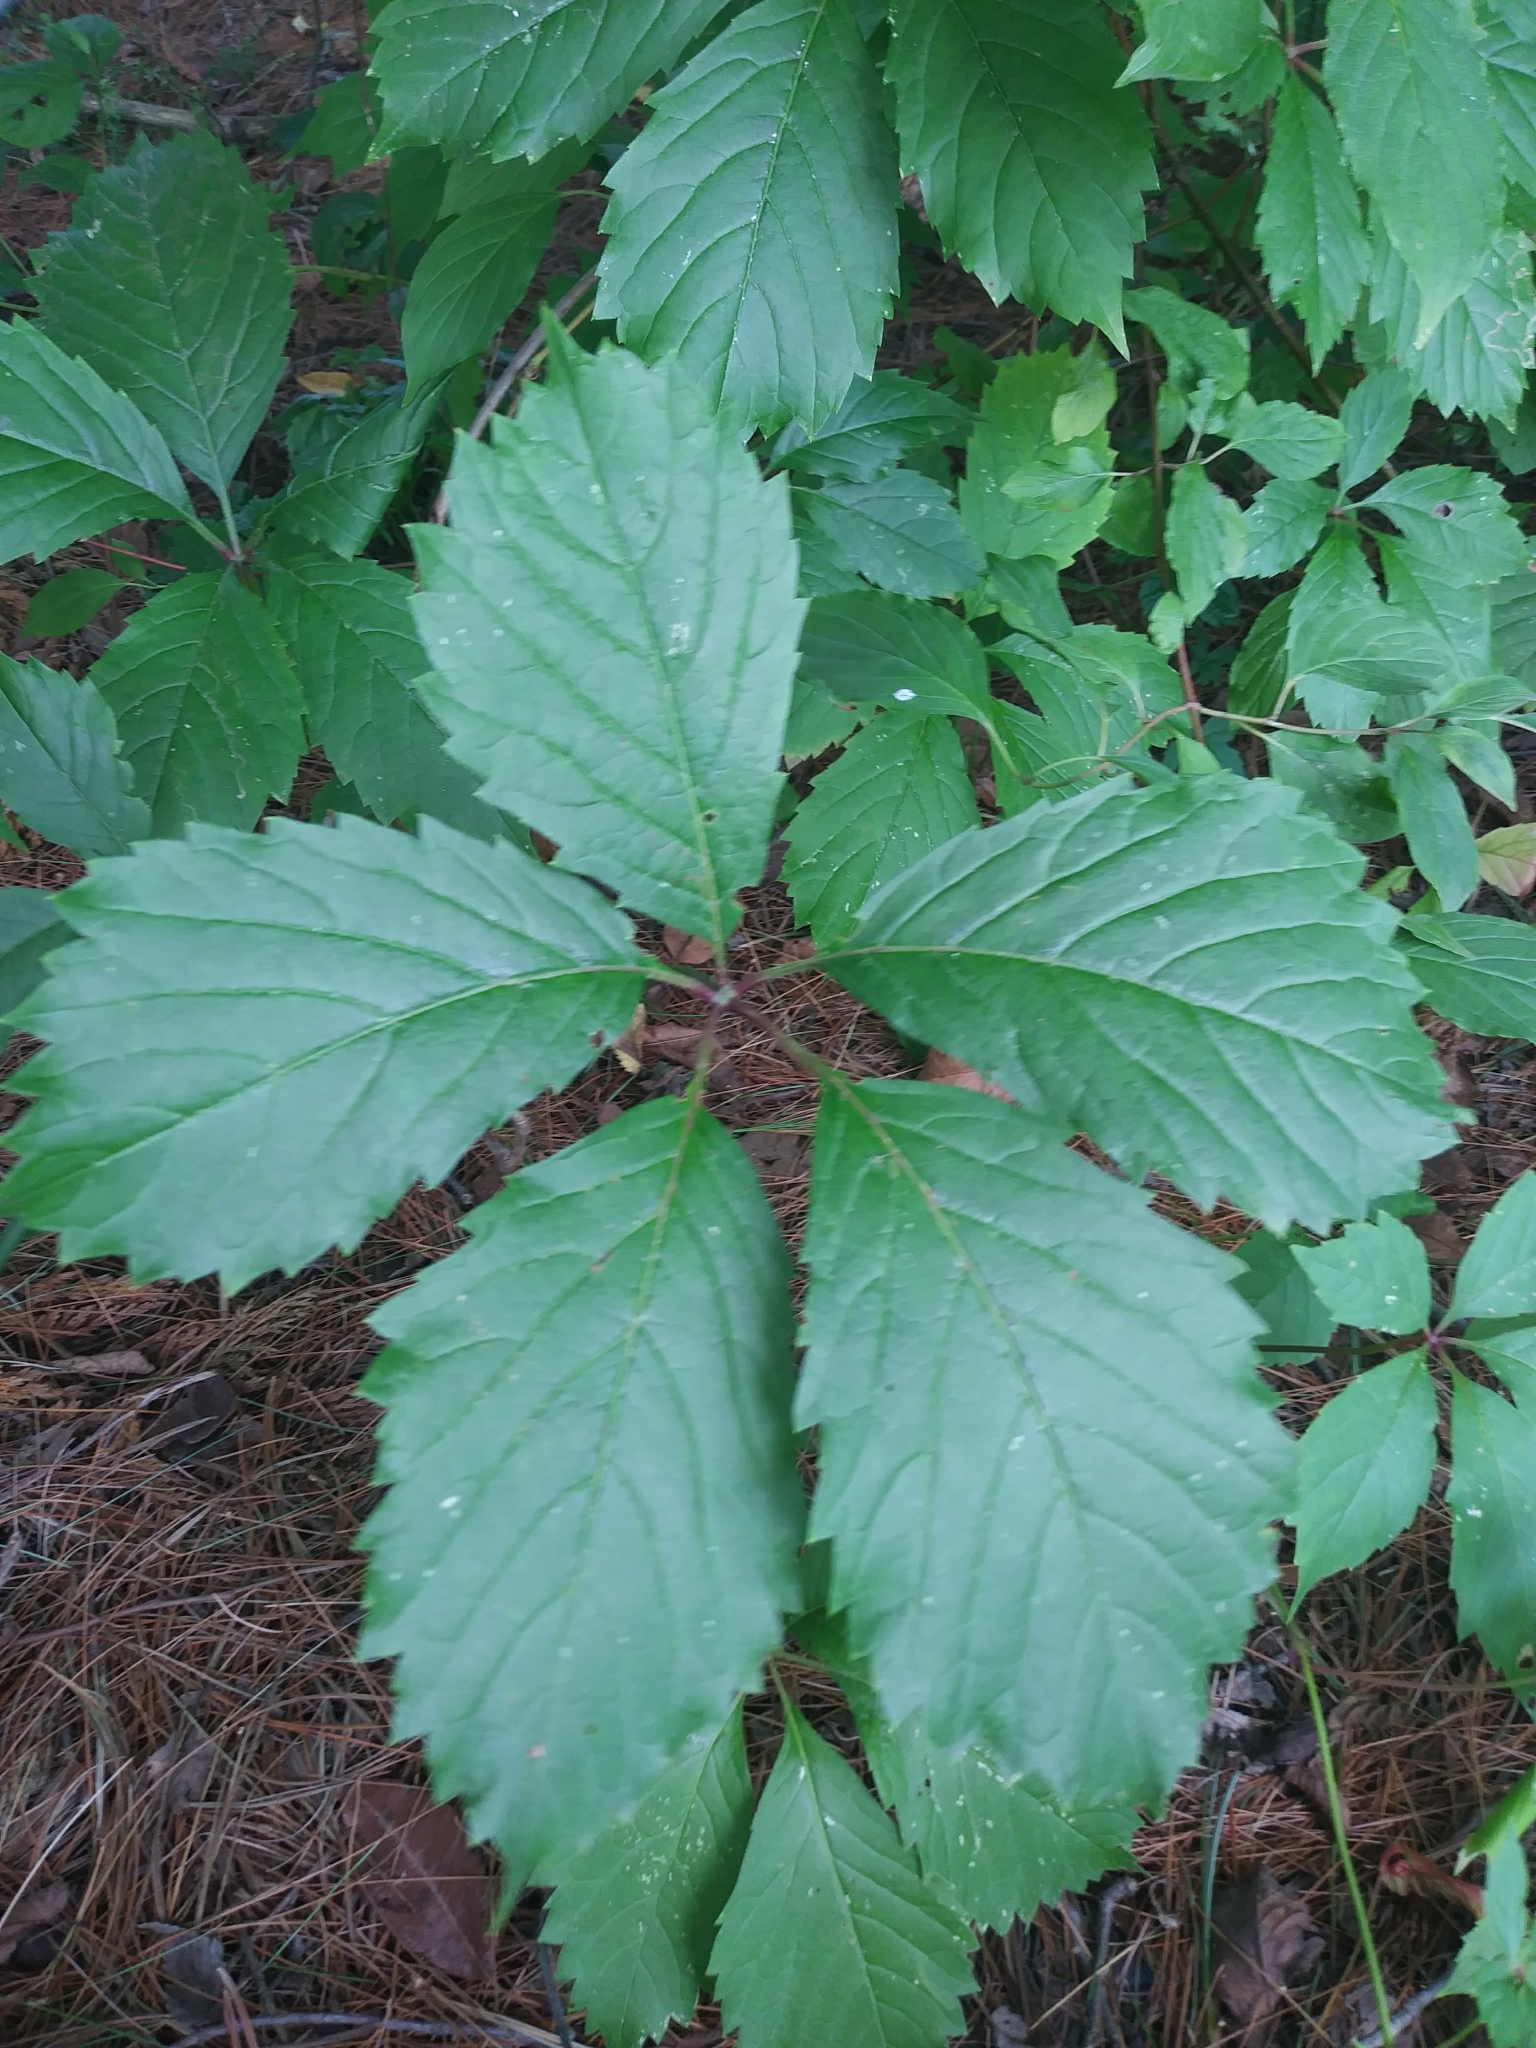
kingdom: Plantae
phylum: Tracheophyta
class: Magnoliopsida
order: Vitales
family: Vitaceae
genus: Parthenocissus
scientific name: Parthenocissus inserta
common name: False virginia-creeper
